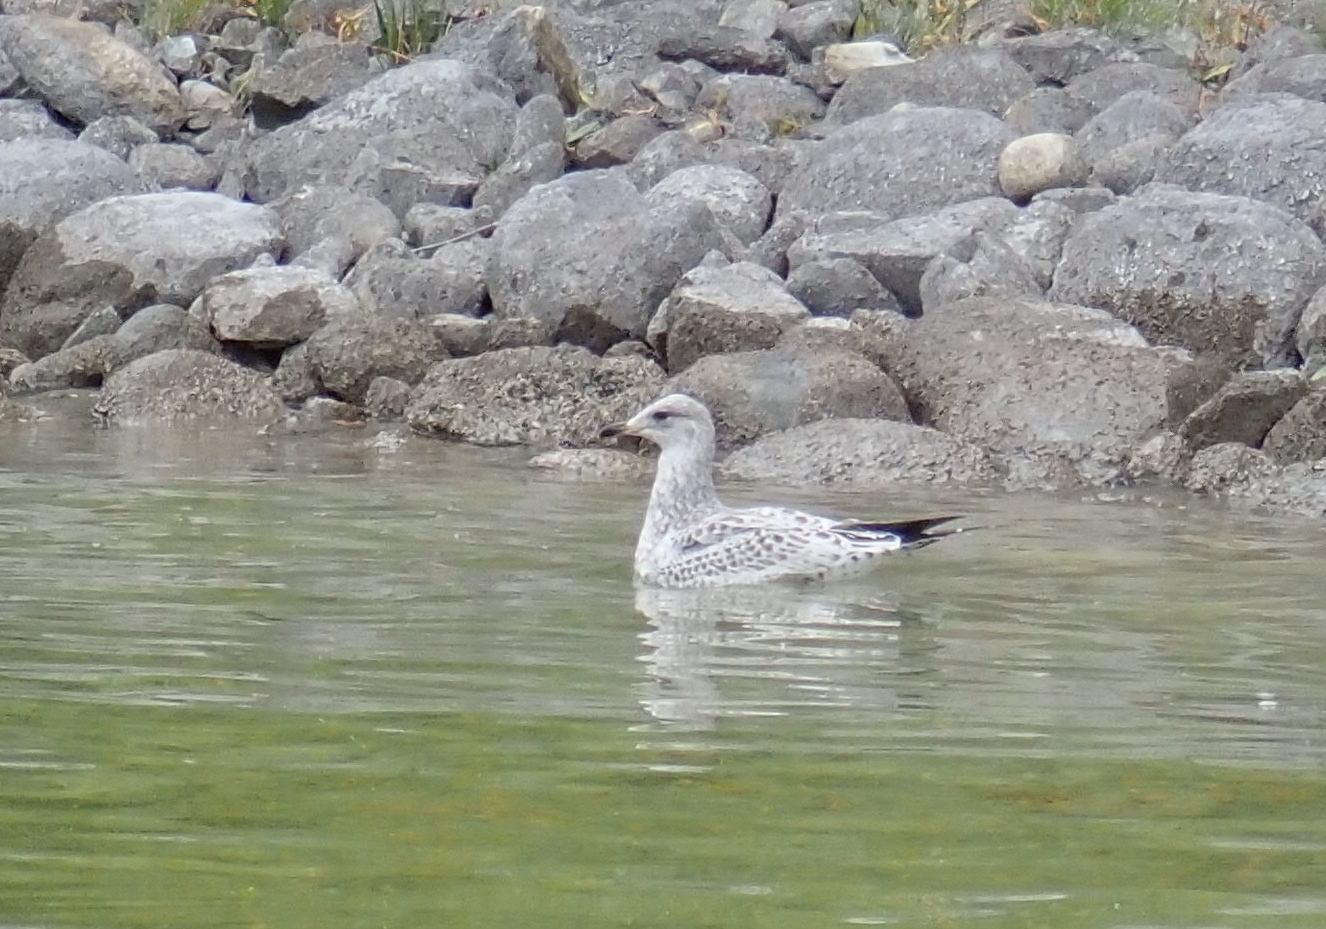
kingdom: Animalia
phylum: Chordata
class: Aves
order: Charadriiformes
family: Laridae
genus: Larus
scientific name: Larus delawarensis
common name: Ring-billed gull
